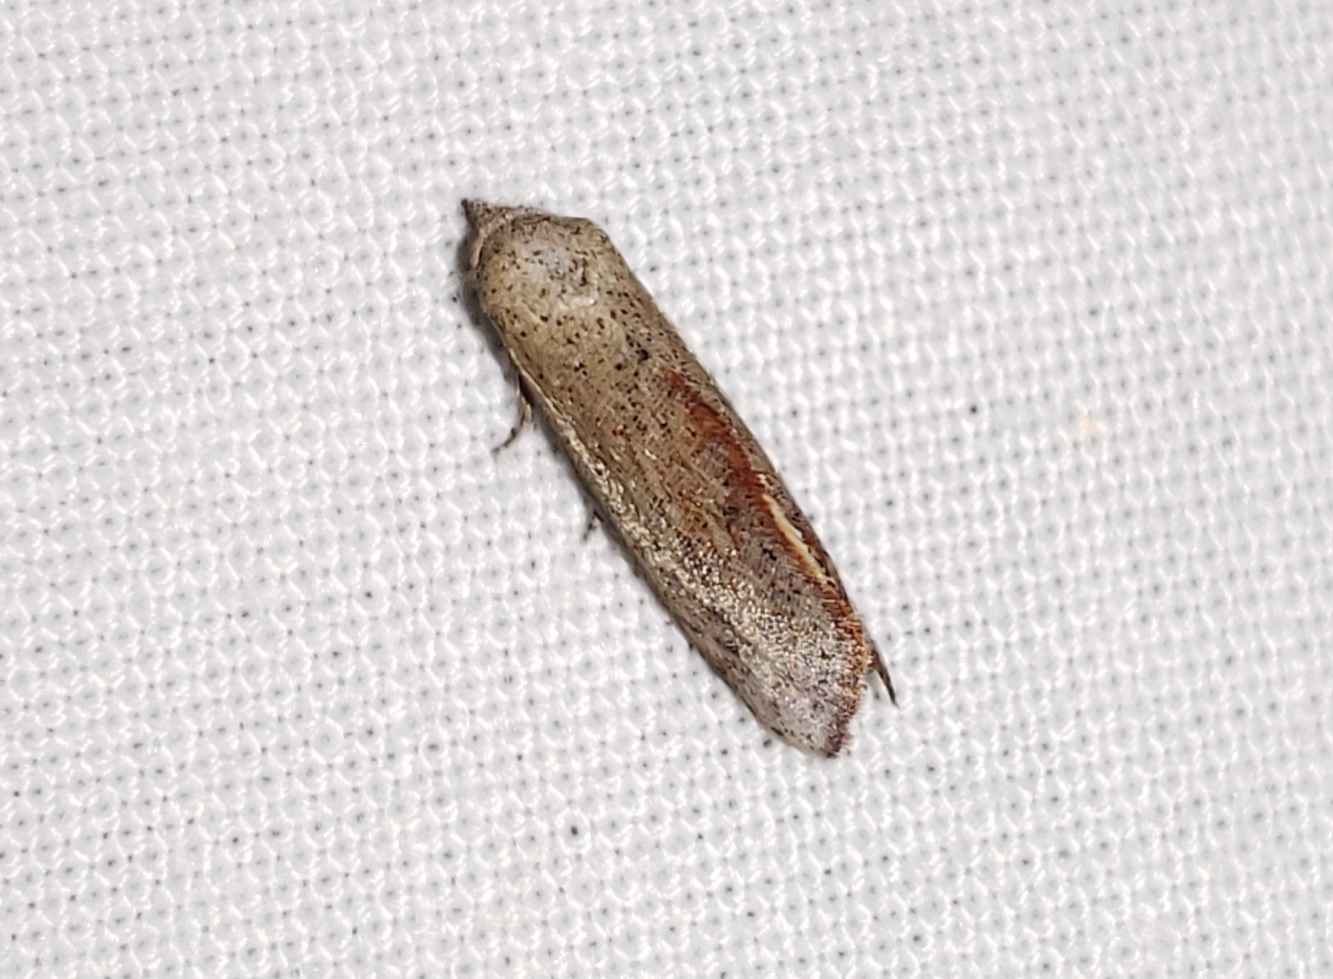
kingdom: Animalia
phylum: Arthropoda
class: Insecta
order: Lepidoptera
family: Noctuidae
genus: Proroblemma
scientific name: Proroblemma testa
